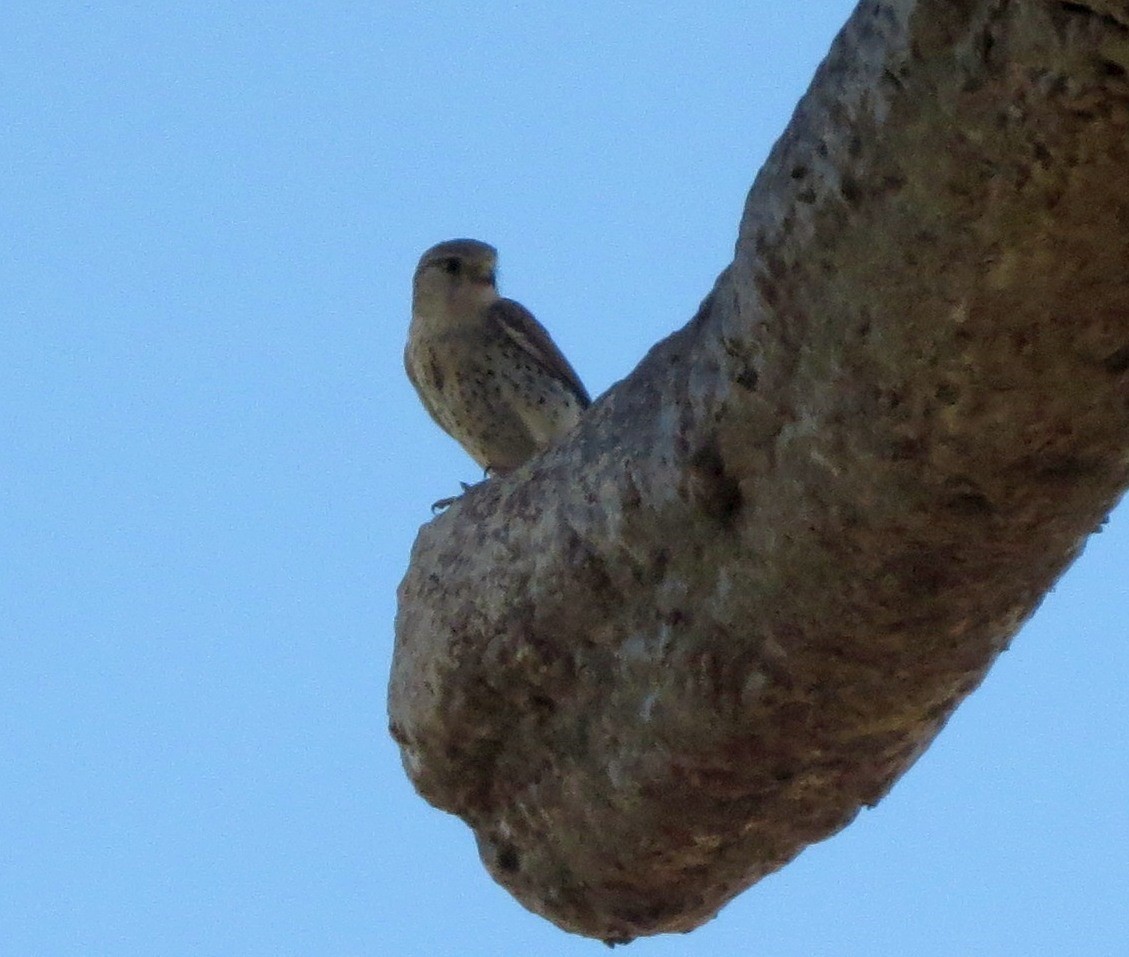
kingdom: Animalia
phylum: Chordata
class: Aves
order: Falconiformes
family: Falconidae
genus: Falco
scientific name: Falco newtoni
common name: Malagasy kestrel
